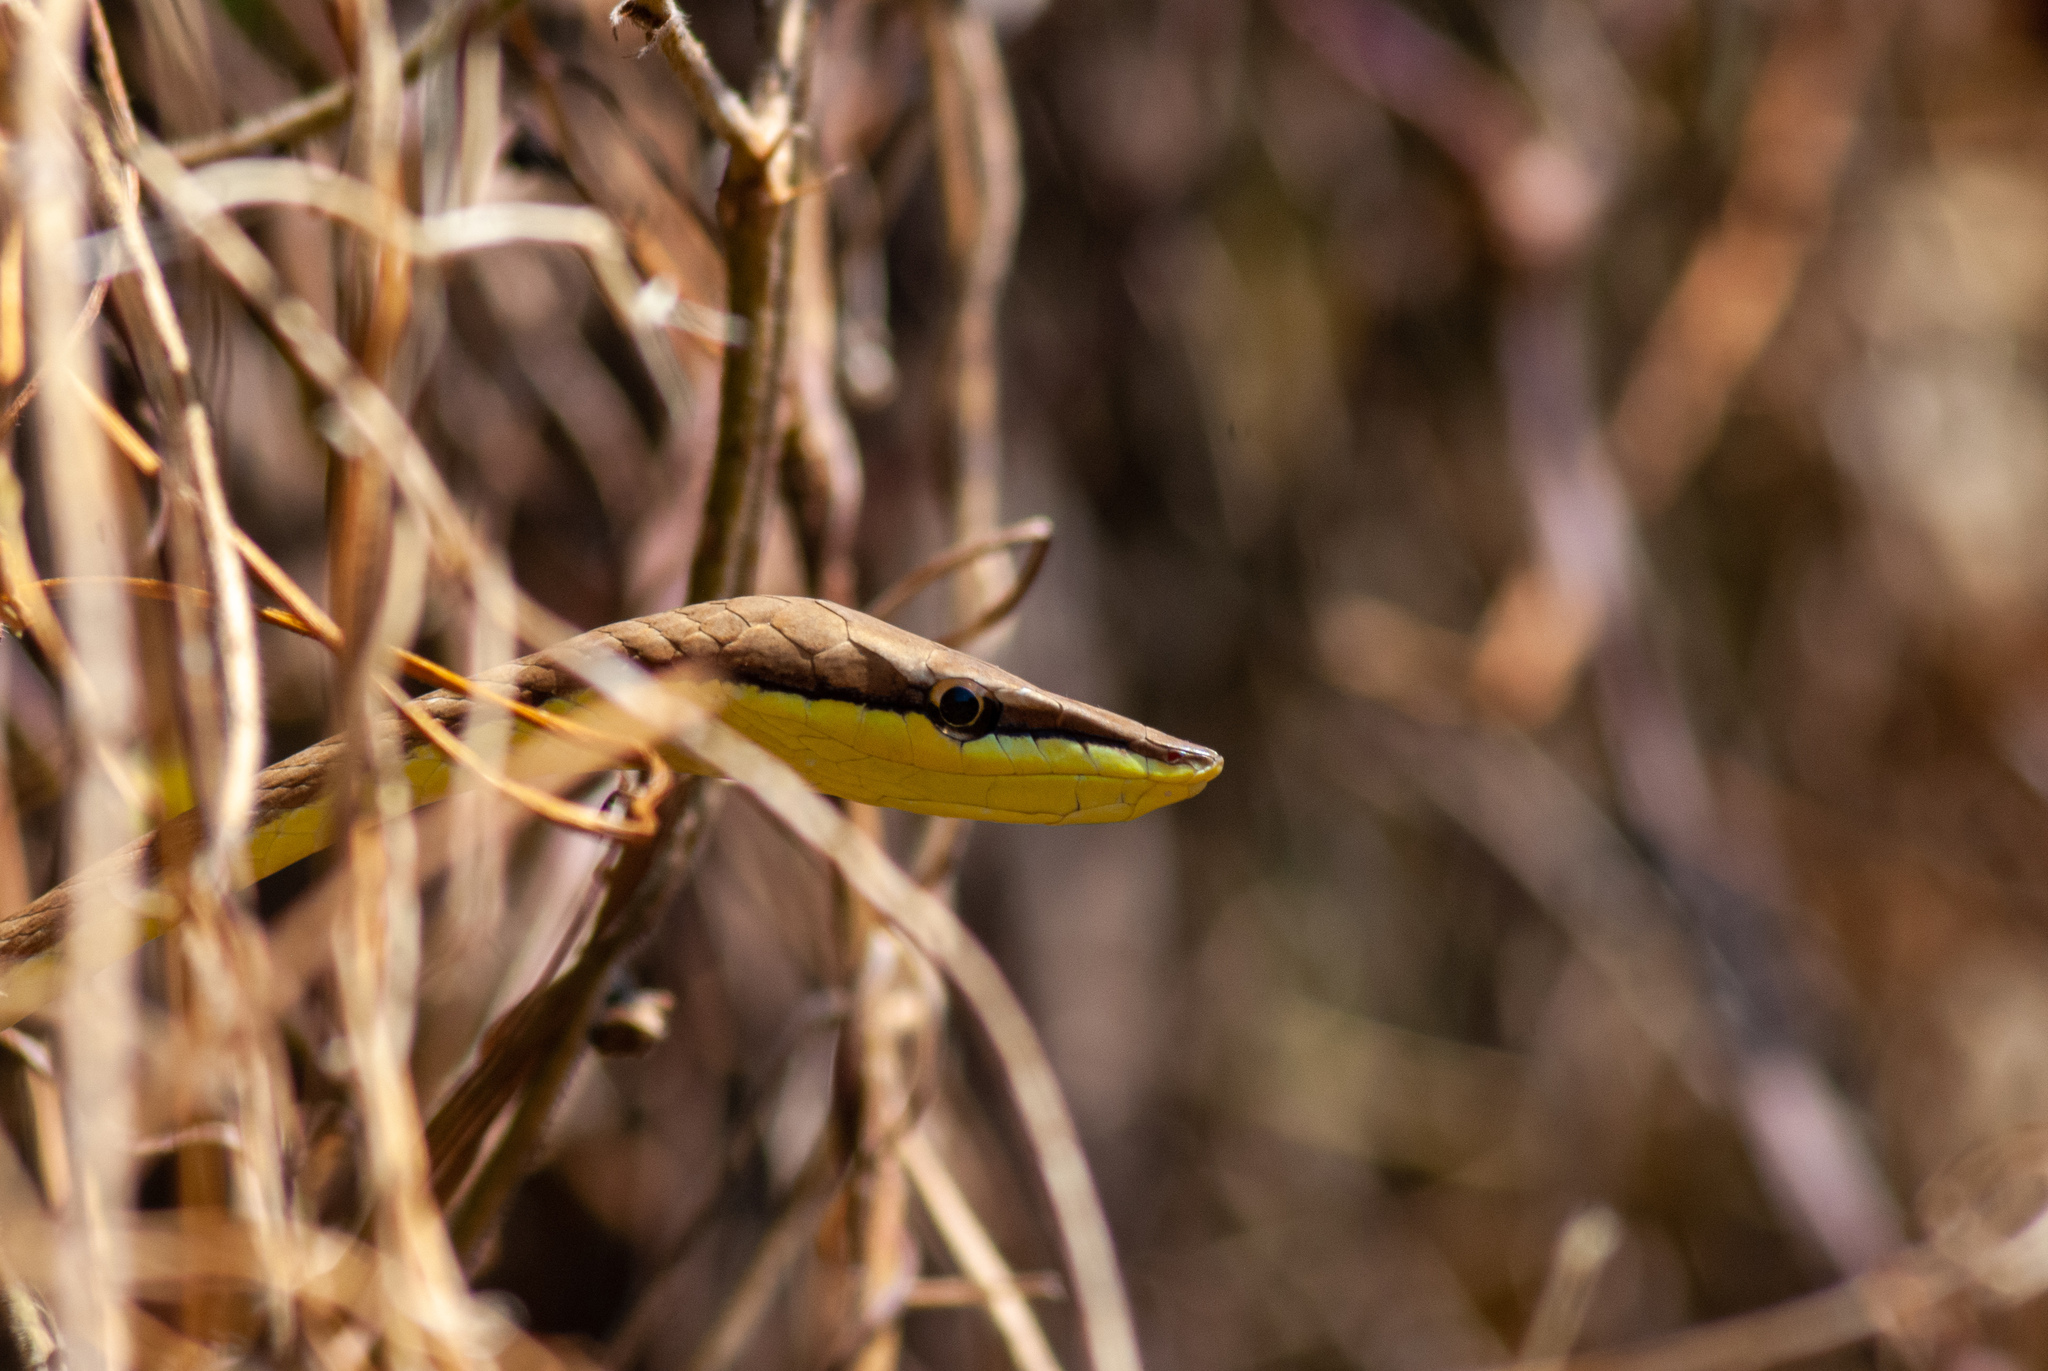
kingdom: Animalia
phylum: Chordata
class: Squamata
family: Colubridae
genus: Oxybelis
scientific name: Oxybelis aeneus
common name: Brown vinesnake
